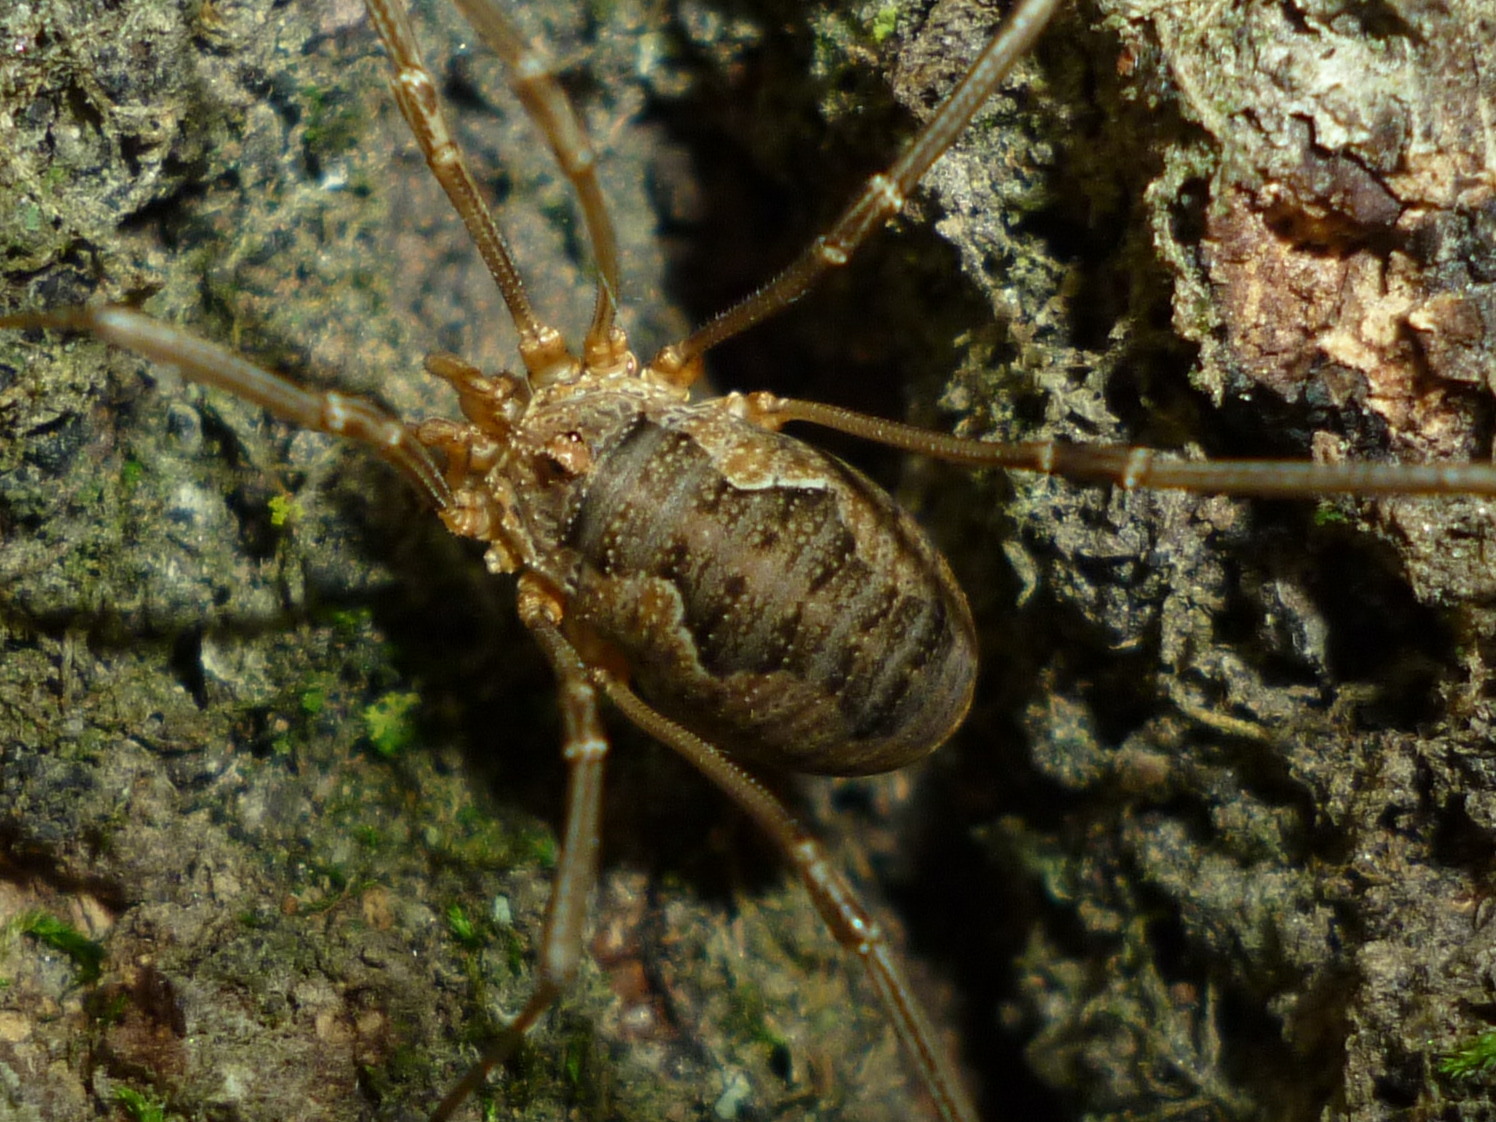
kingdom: Animalia
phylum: Arthropoda
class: Arachnida
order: Opiliones
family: Phalangiidae
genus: Phalangium
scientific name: Phalangium opilio
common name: Daddy longleg
